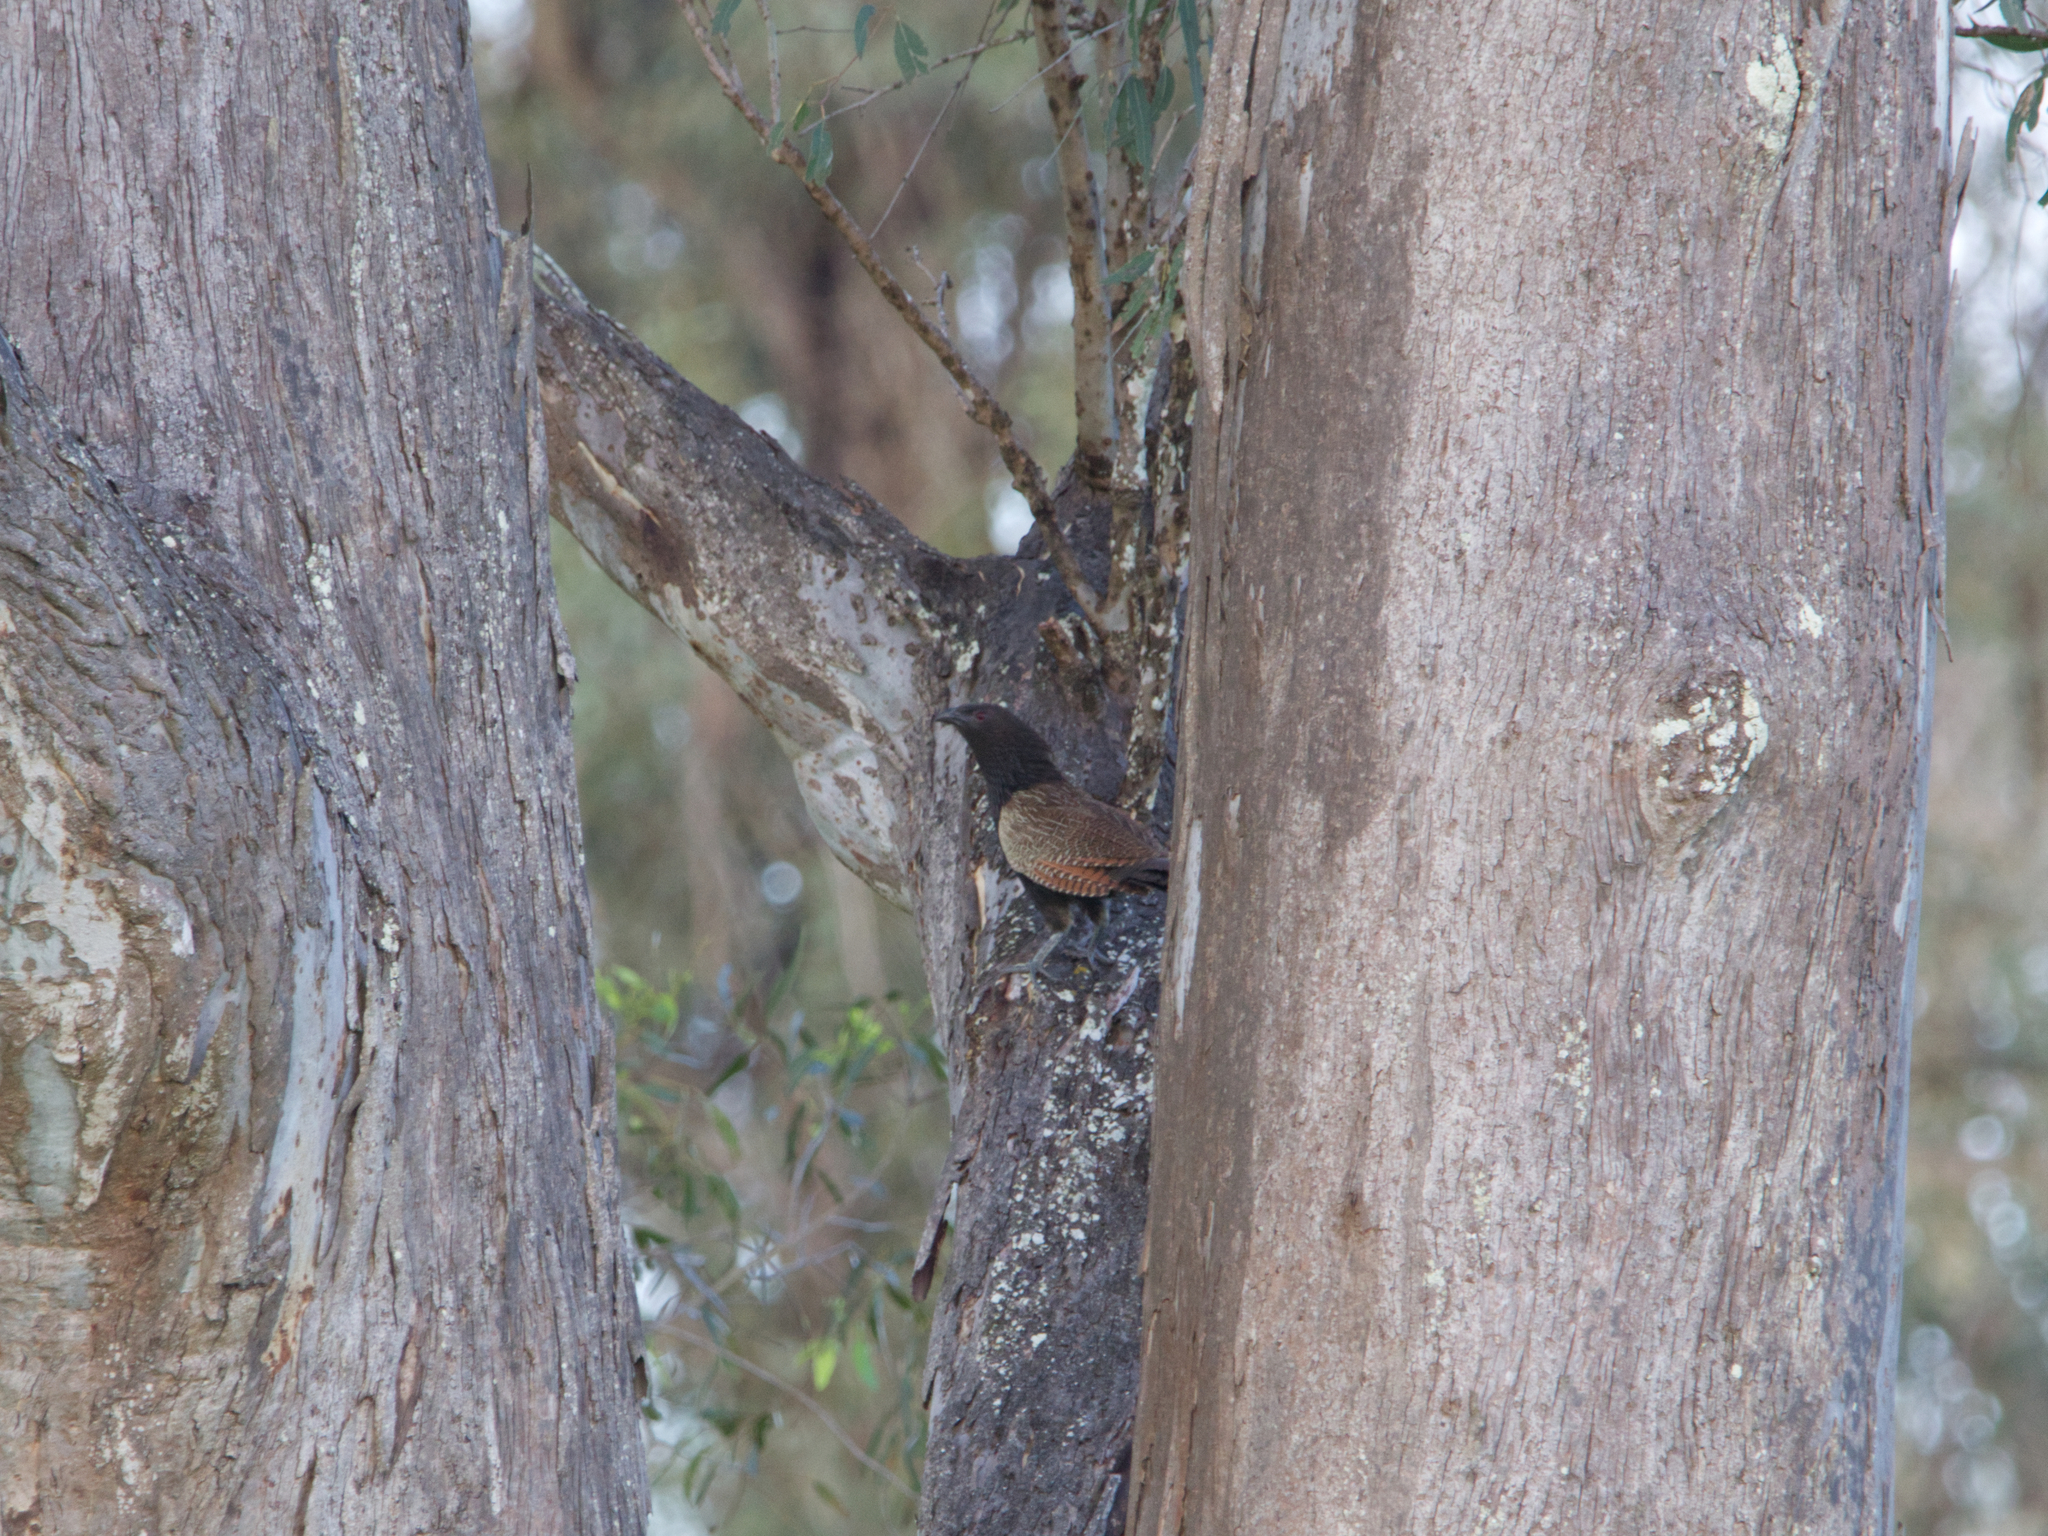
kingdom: Animalia
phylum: Chordata
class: Aves
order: Cuculiformes
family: Cuculidae
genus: Centropus
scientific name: Centropus phasianinus
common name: Pheasant coucal
